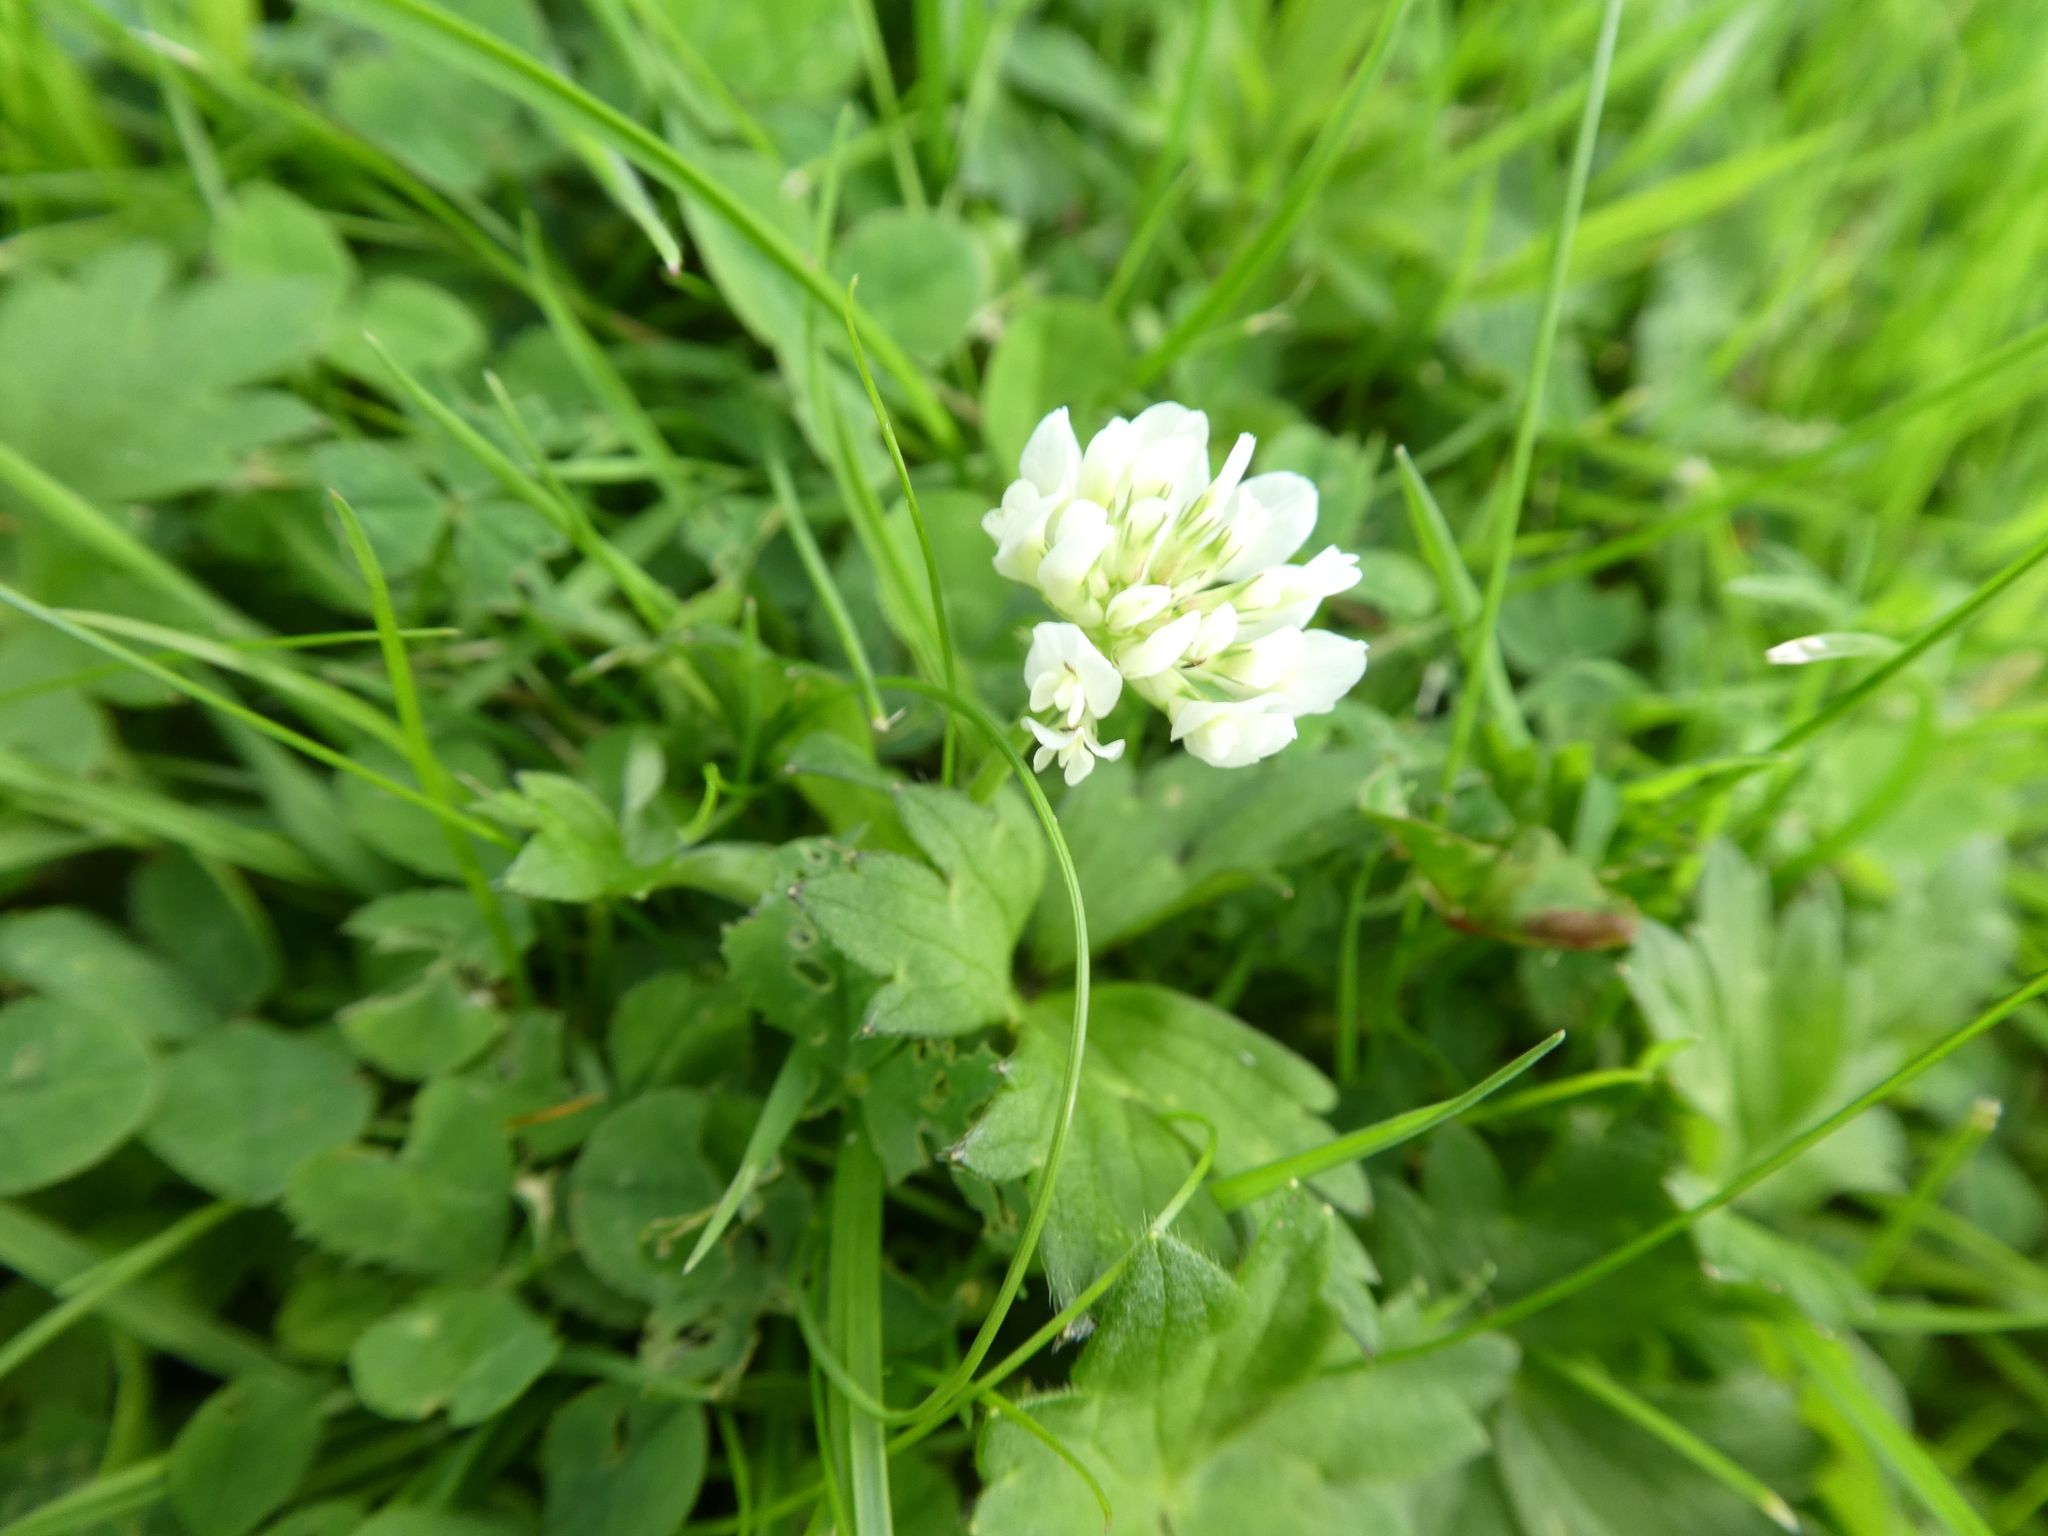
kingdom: Plantae
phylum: Tracheophyta
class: Magnoliopsida
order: Fabales
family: Fabaceae
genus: Trifolium
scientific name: Trifolium repens
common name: White clover
